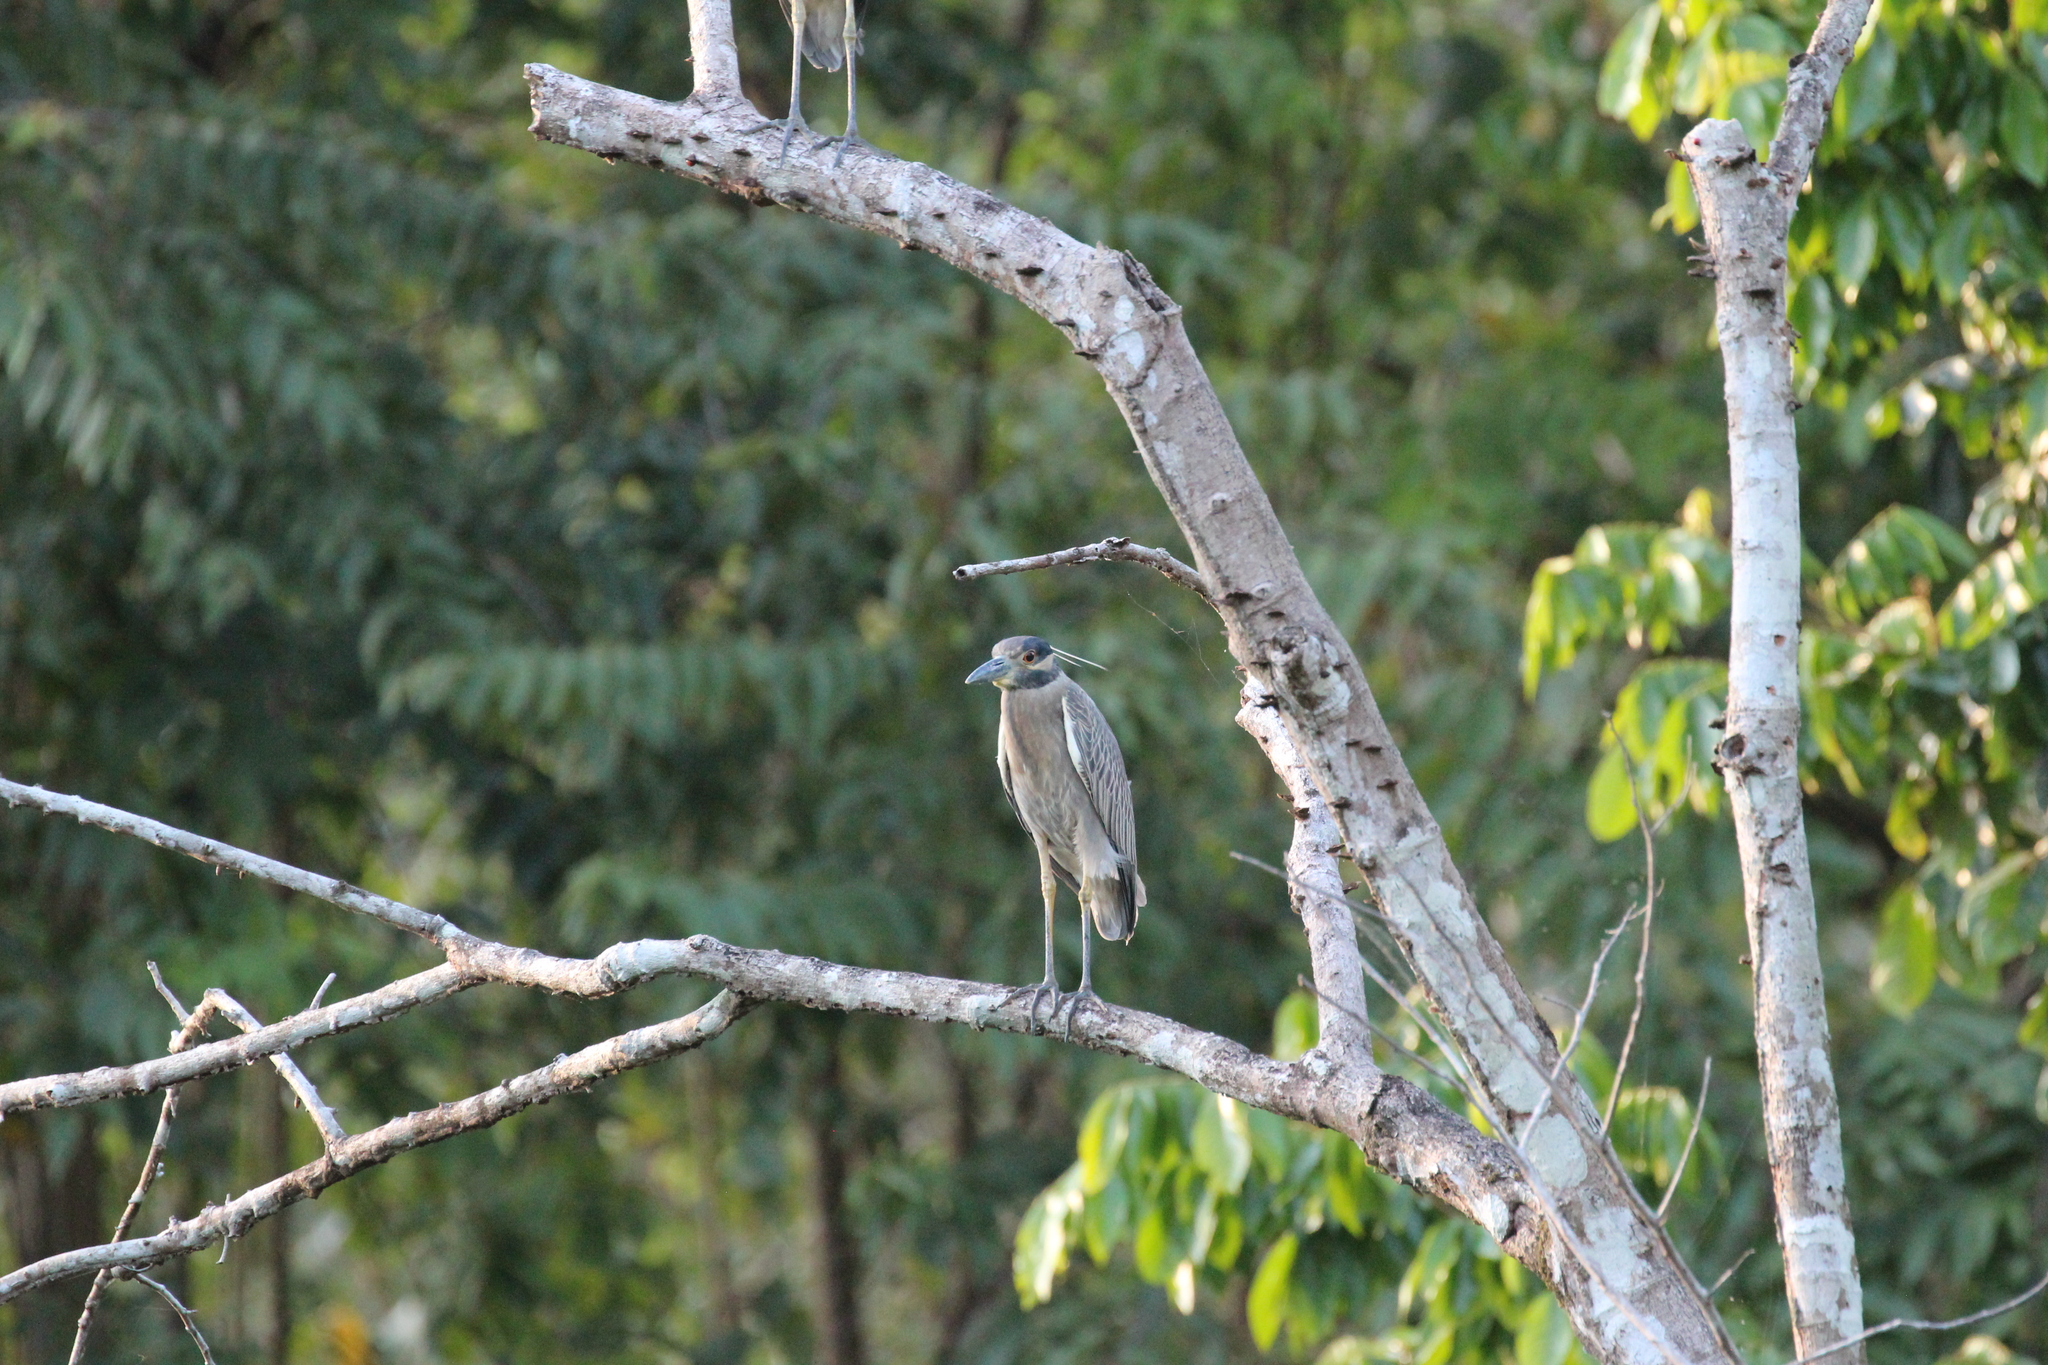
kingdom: Animalia
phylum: Chordata
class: Aves
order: Pelecaniformes
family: Ardeidae
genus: Nyctanassa
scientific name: Nyctanassa violacea
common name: Yellow-crowned night heron
